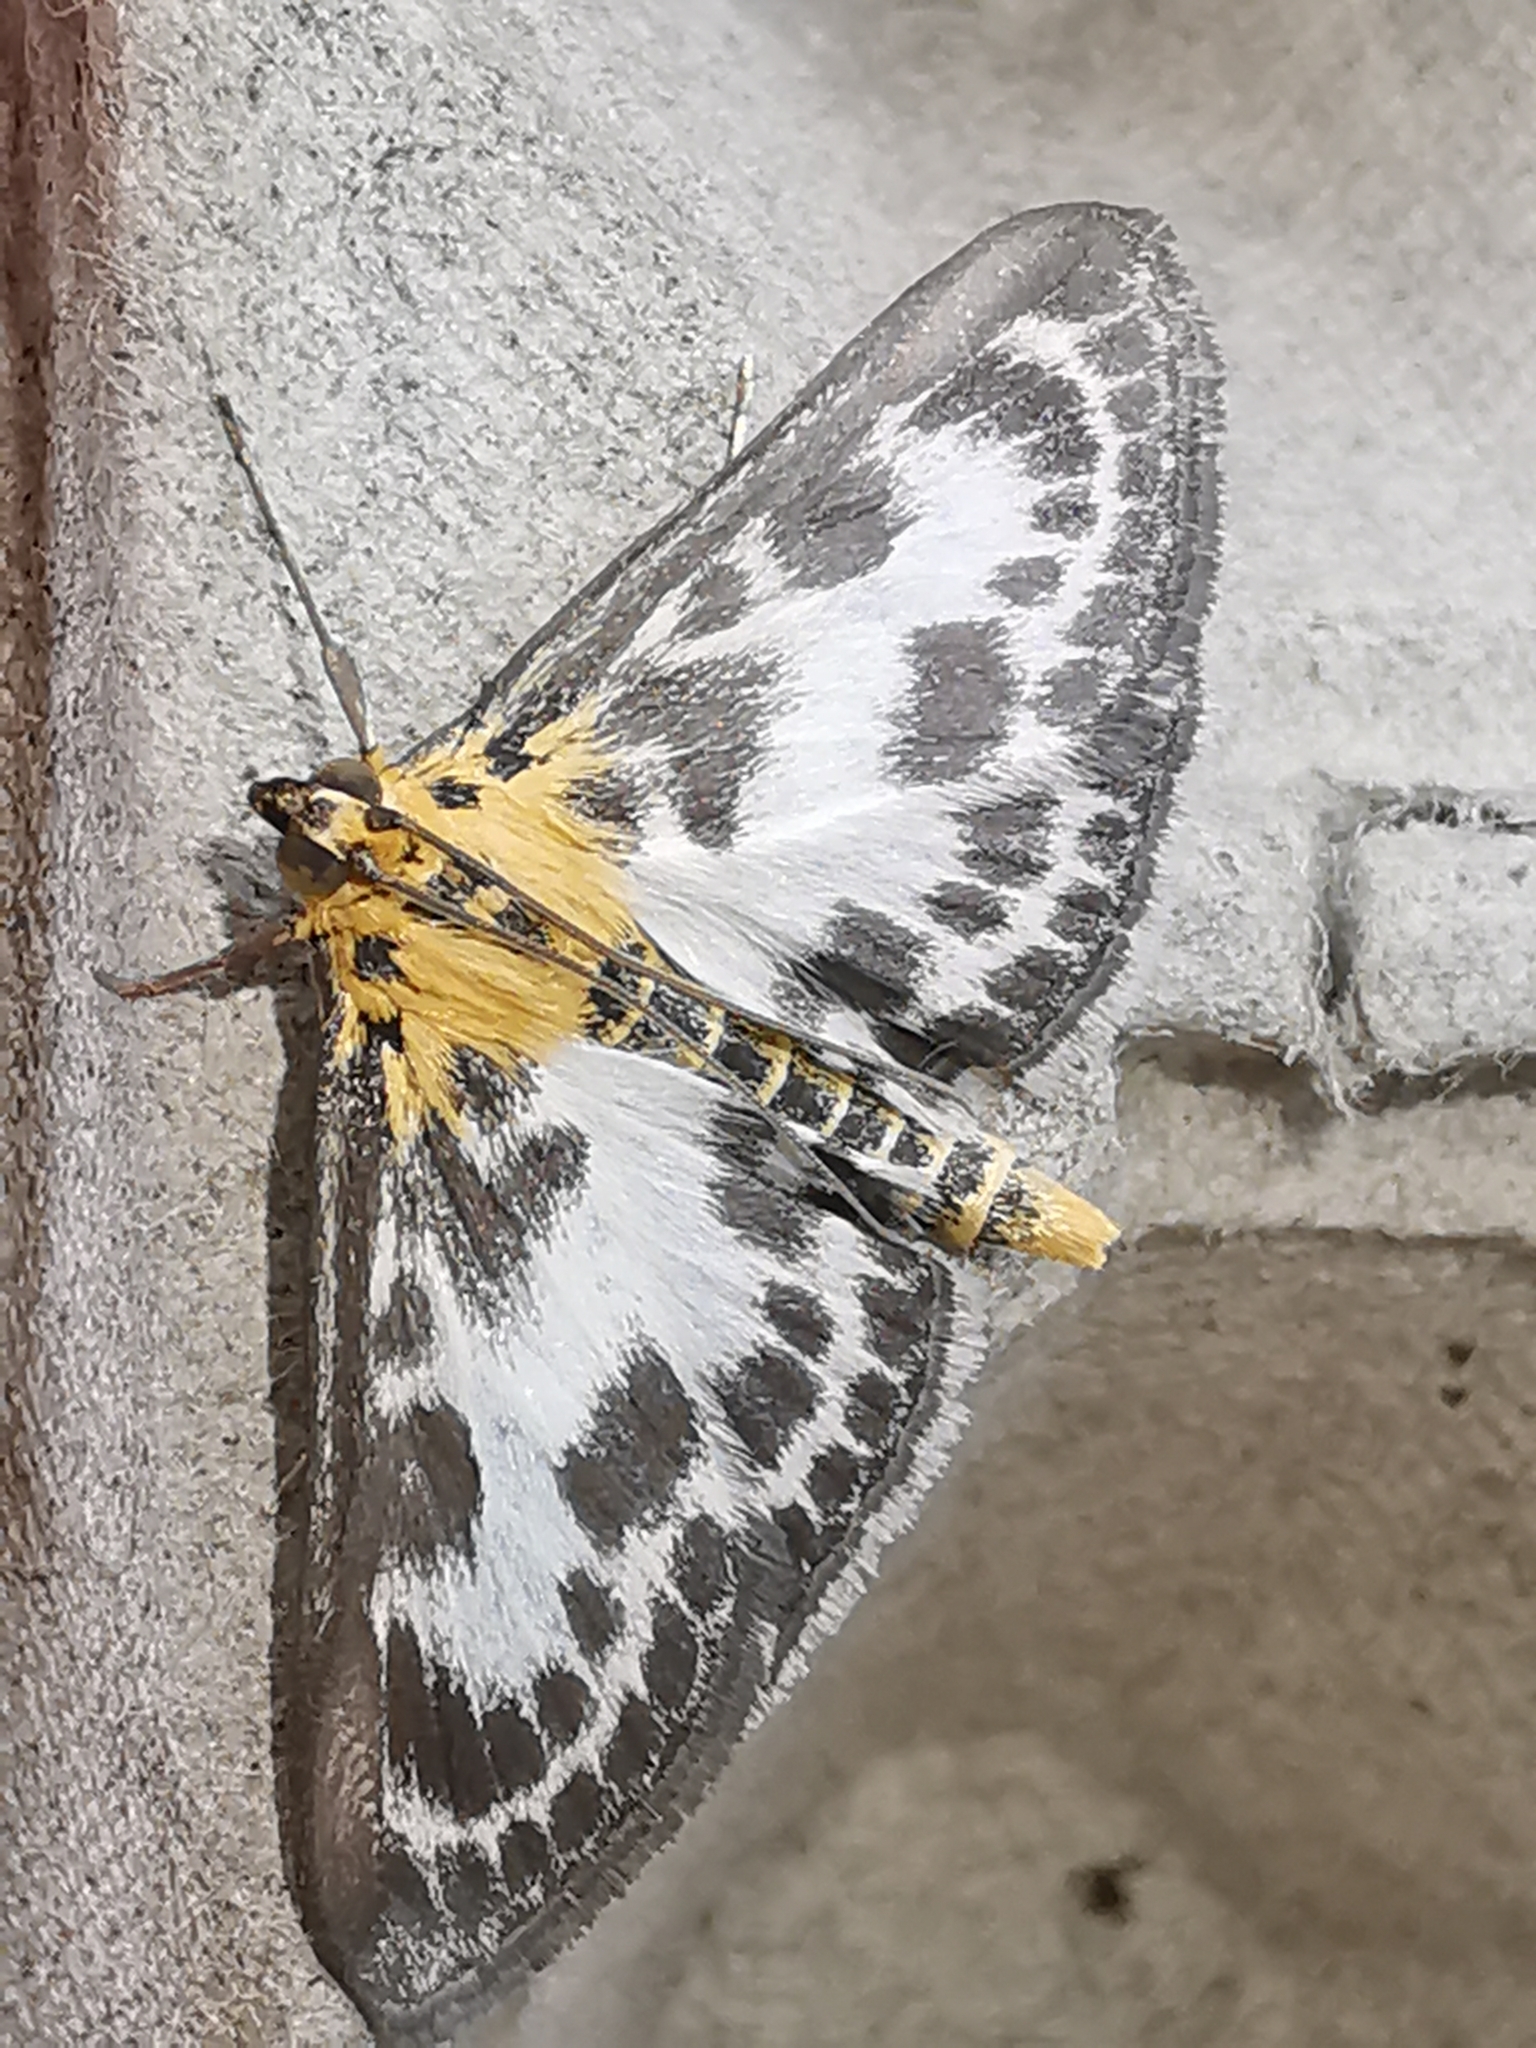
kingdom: Animalia
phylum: Arthropoda
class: Insecta
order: Lepidoptera
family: Crambidae
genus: Anania
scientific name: Anania hortulata
